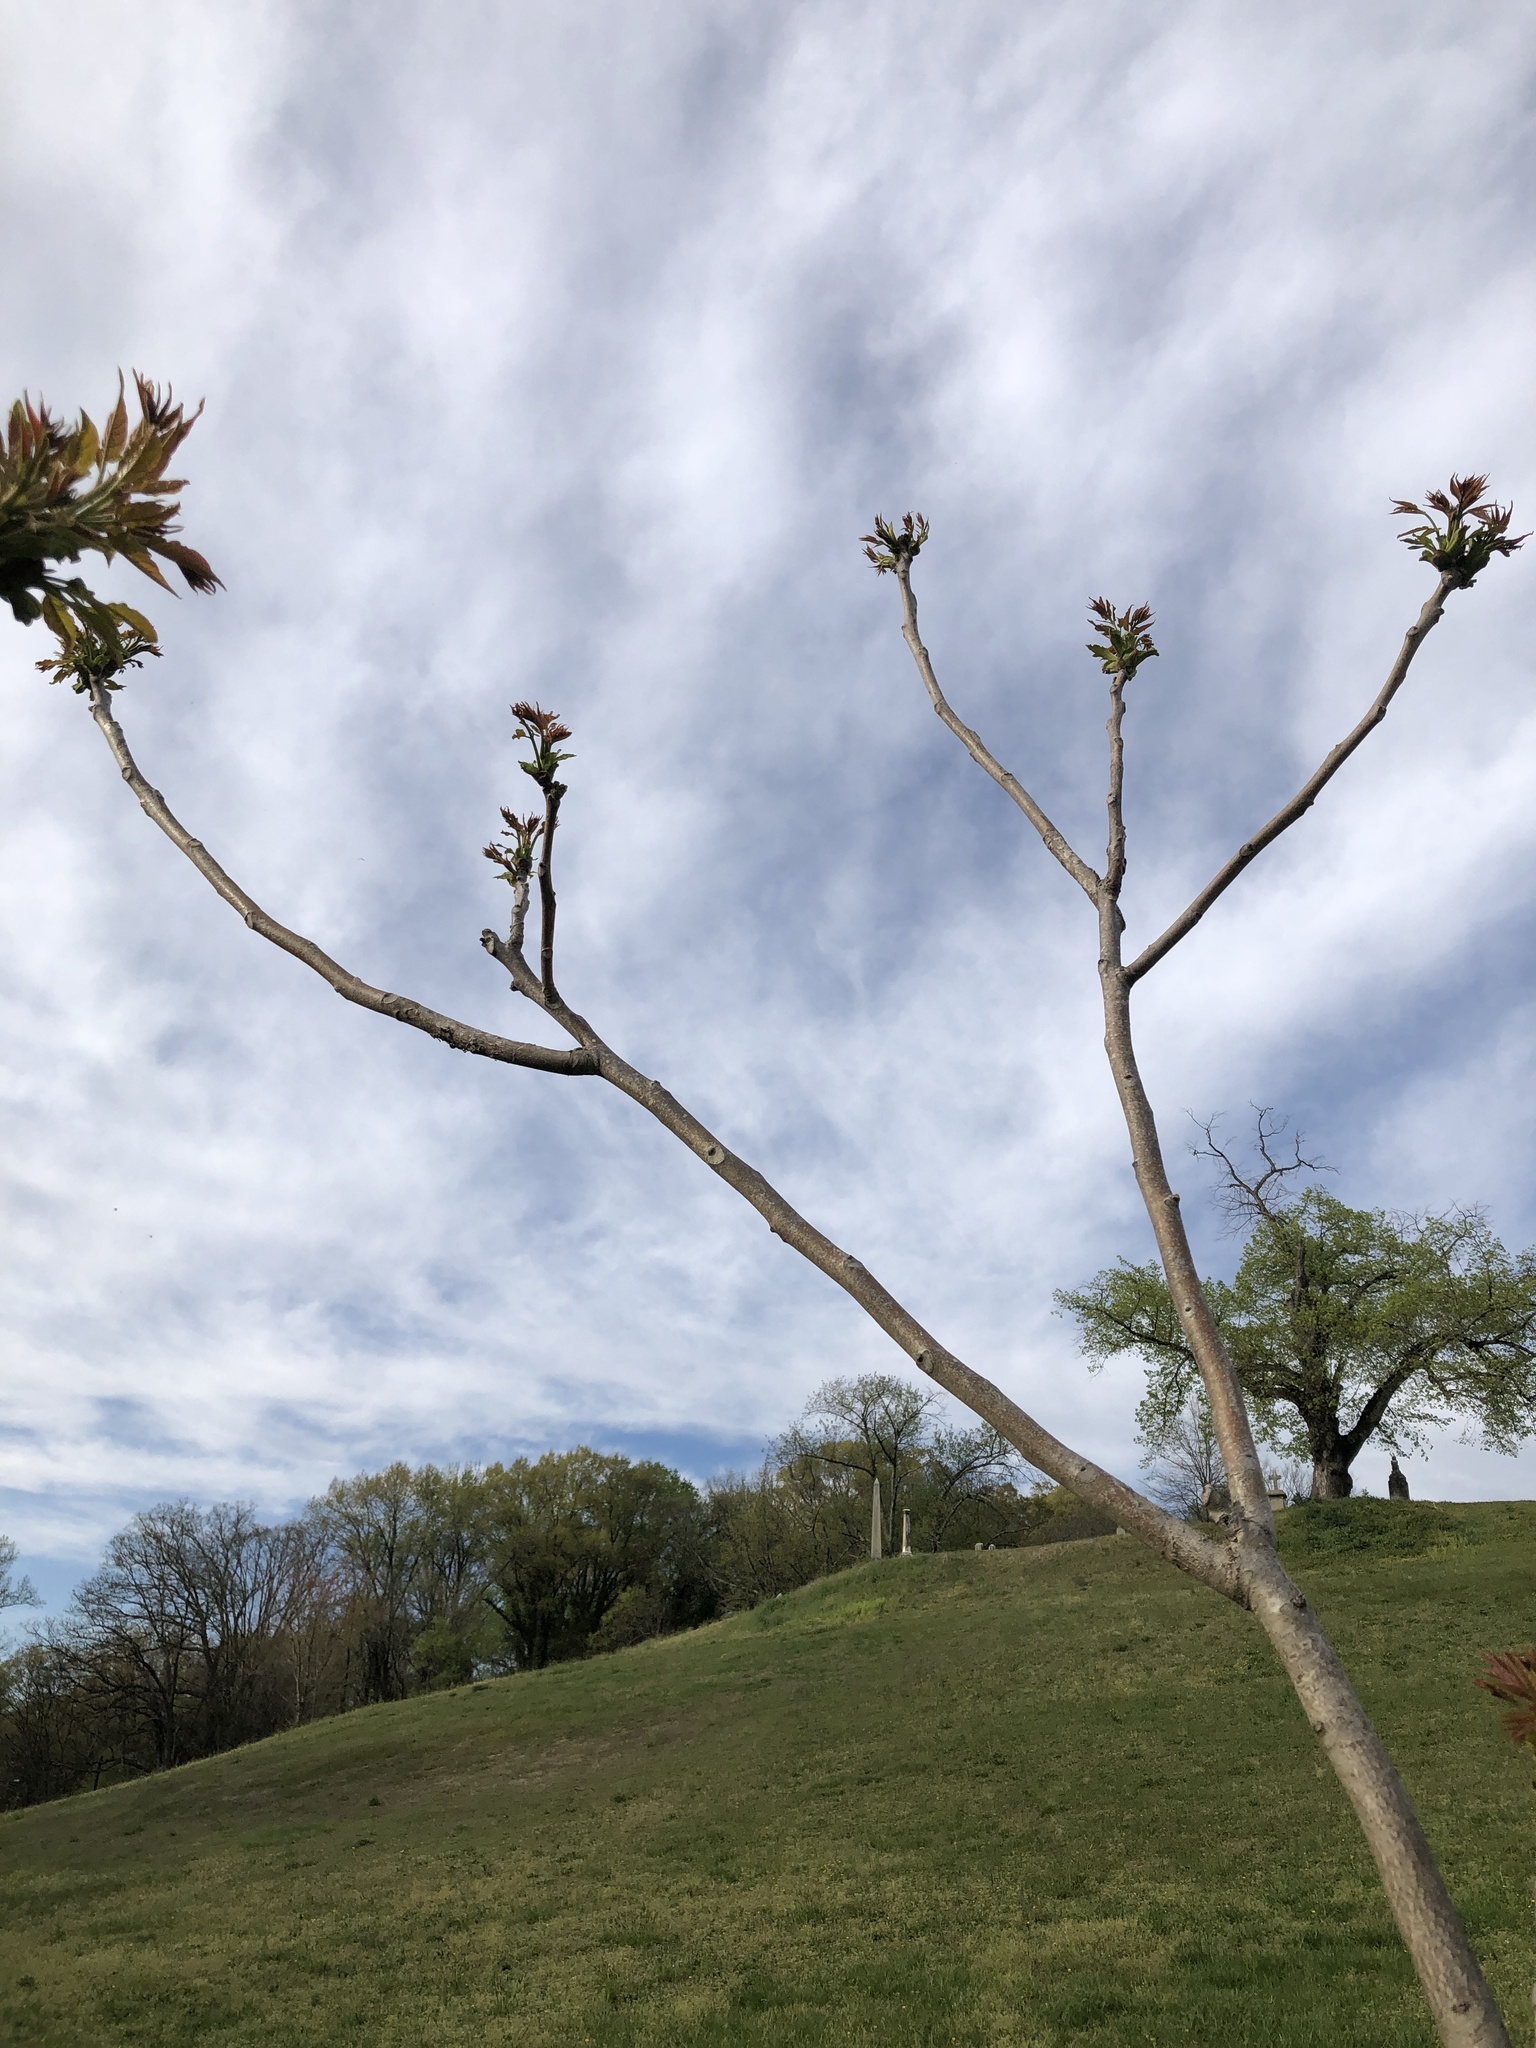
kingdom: Plantae
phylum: Tracheophyta
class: Magnoliopsida
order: Sapindales
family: Simaroubaceae
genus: Ailanthus
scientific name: Ailanthus altissima
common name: Tree-of-heaven
